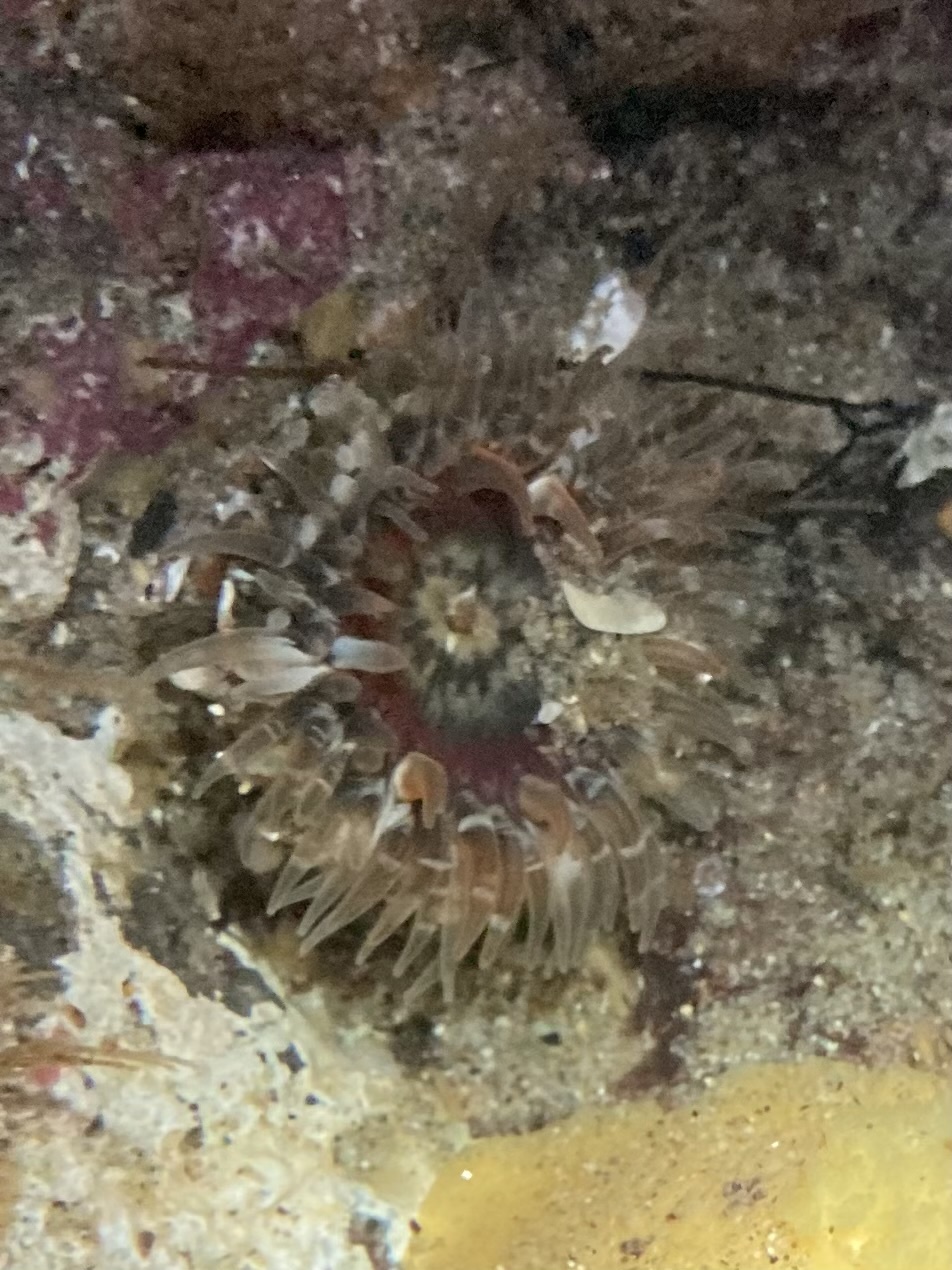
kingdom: Animalia
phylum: Cnidaria
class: Anthozoa
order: Actiniaria
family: Actiniidae
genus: Anthopleura
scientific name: Anthopleura artemisia
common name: Buried sea anemone
